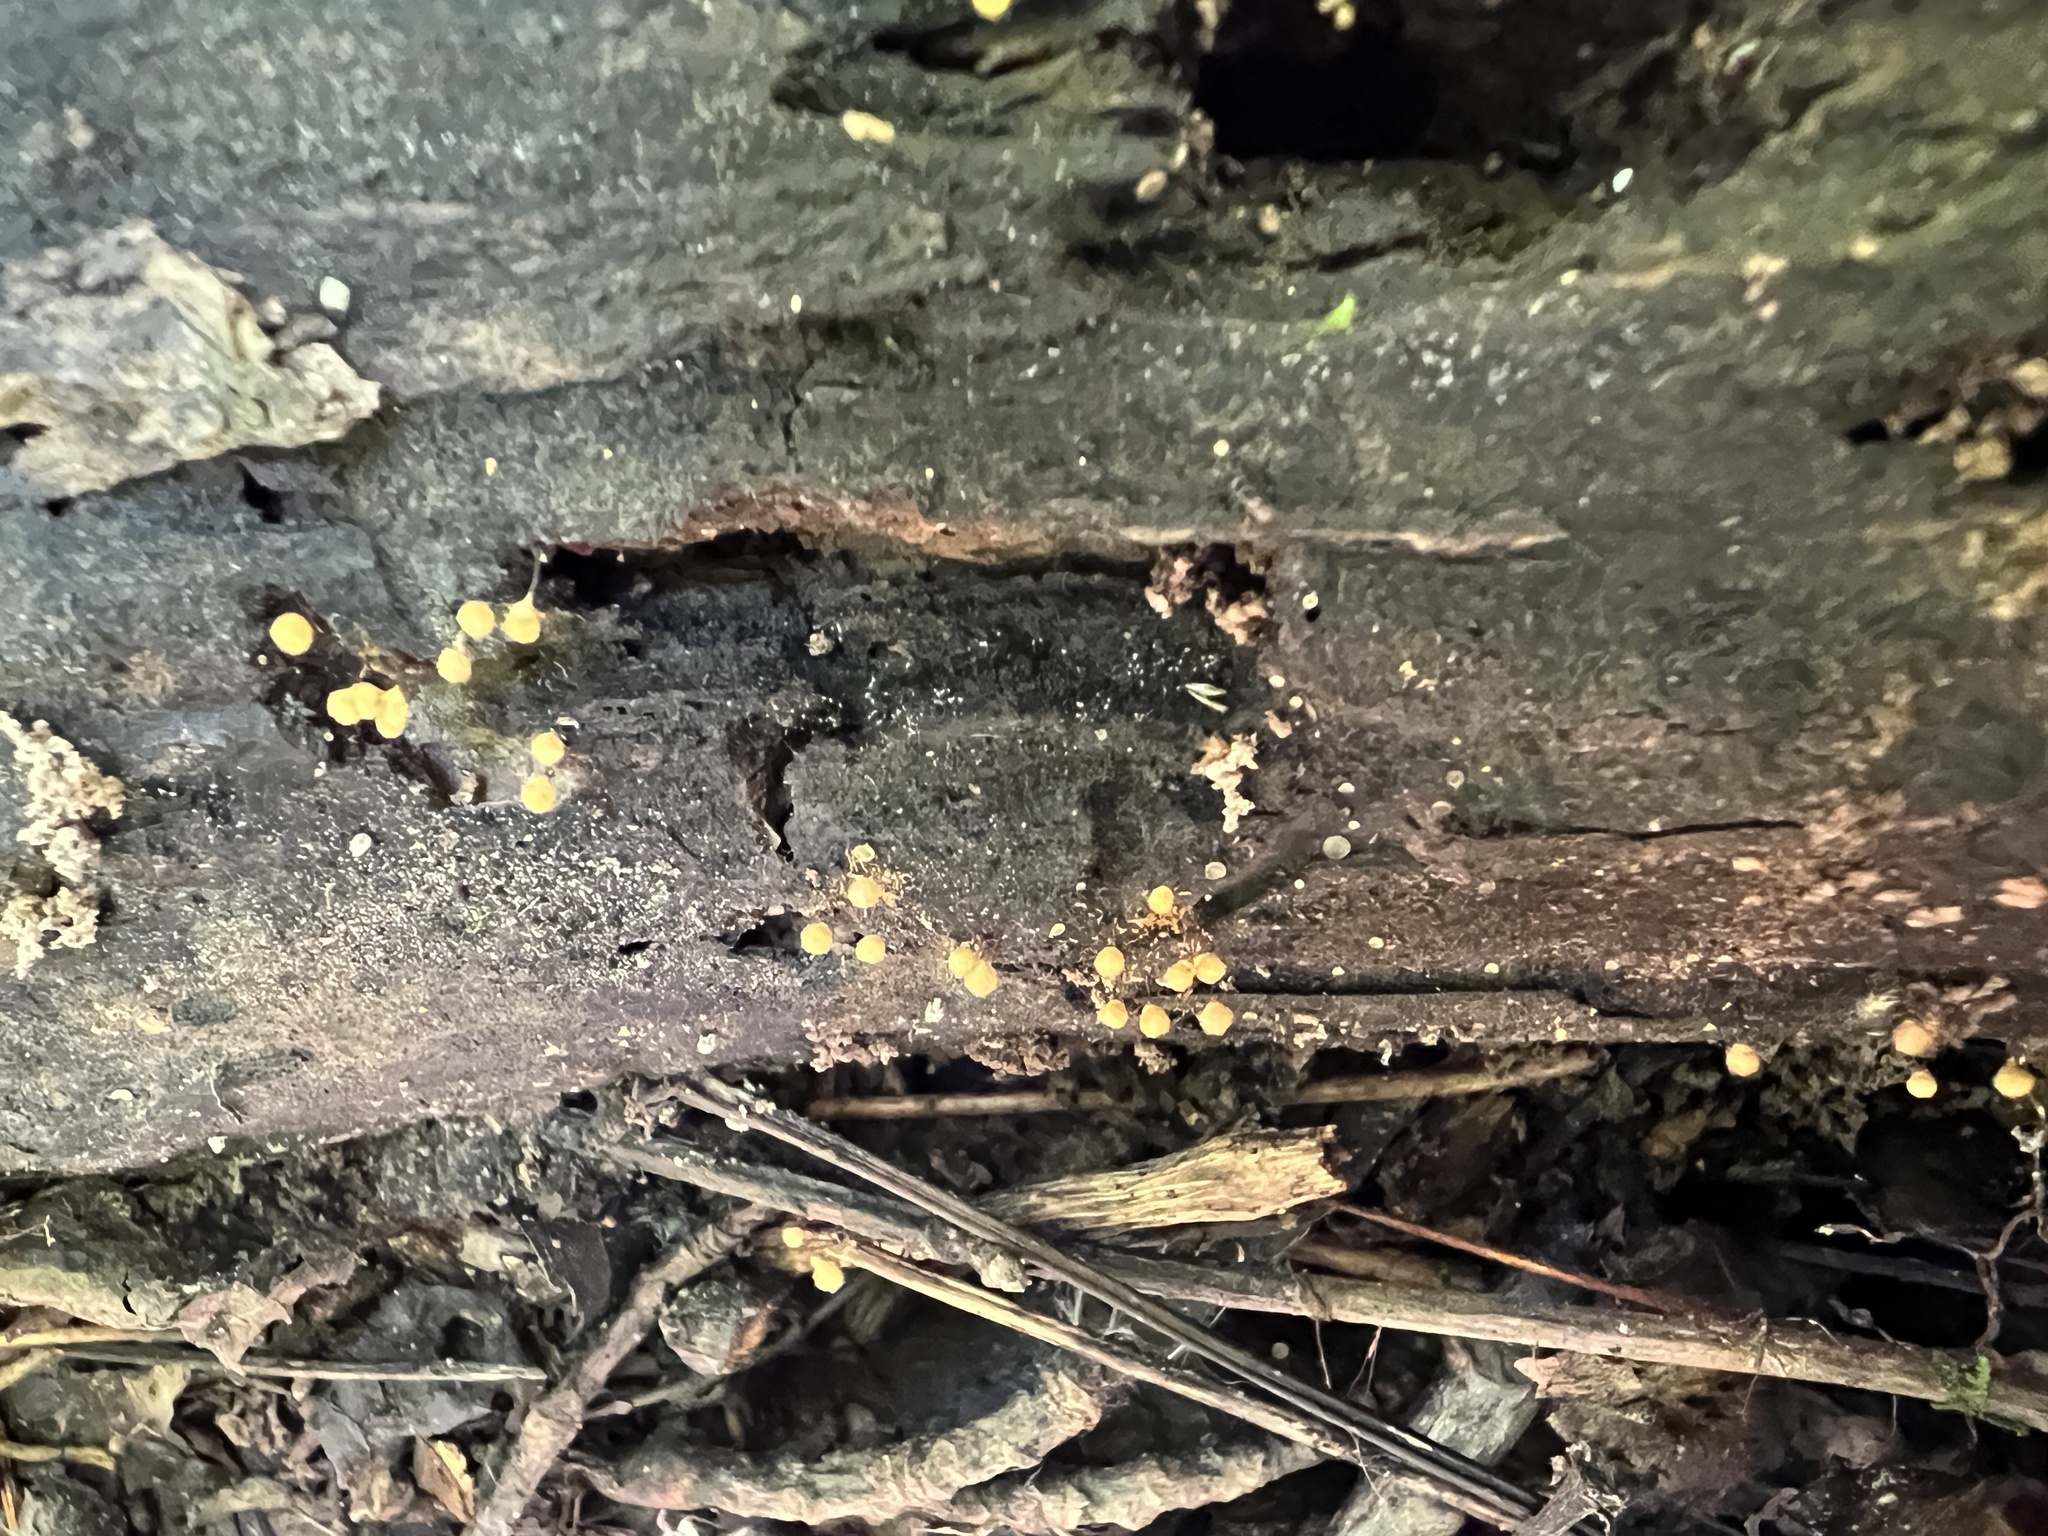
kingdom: Protozoa
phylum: Mycetozoa
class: Myxomycetes
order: Trichiales
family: Arcyriaceae
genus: Hemitrichia
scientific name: Hemitrichia calyculata
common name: Push pin slime mold
